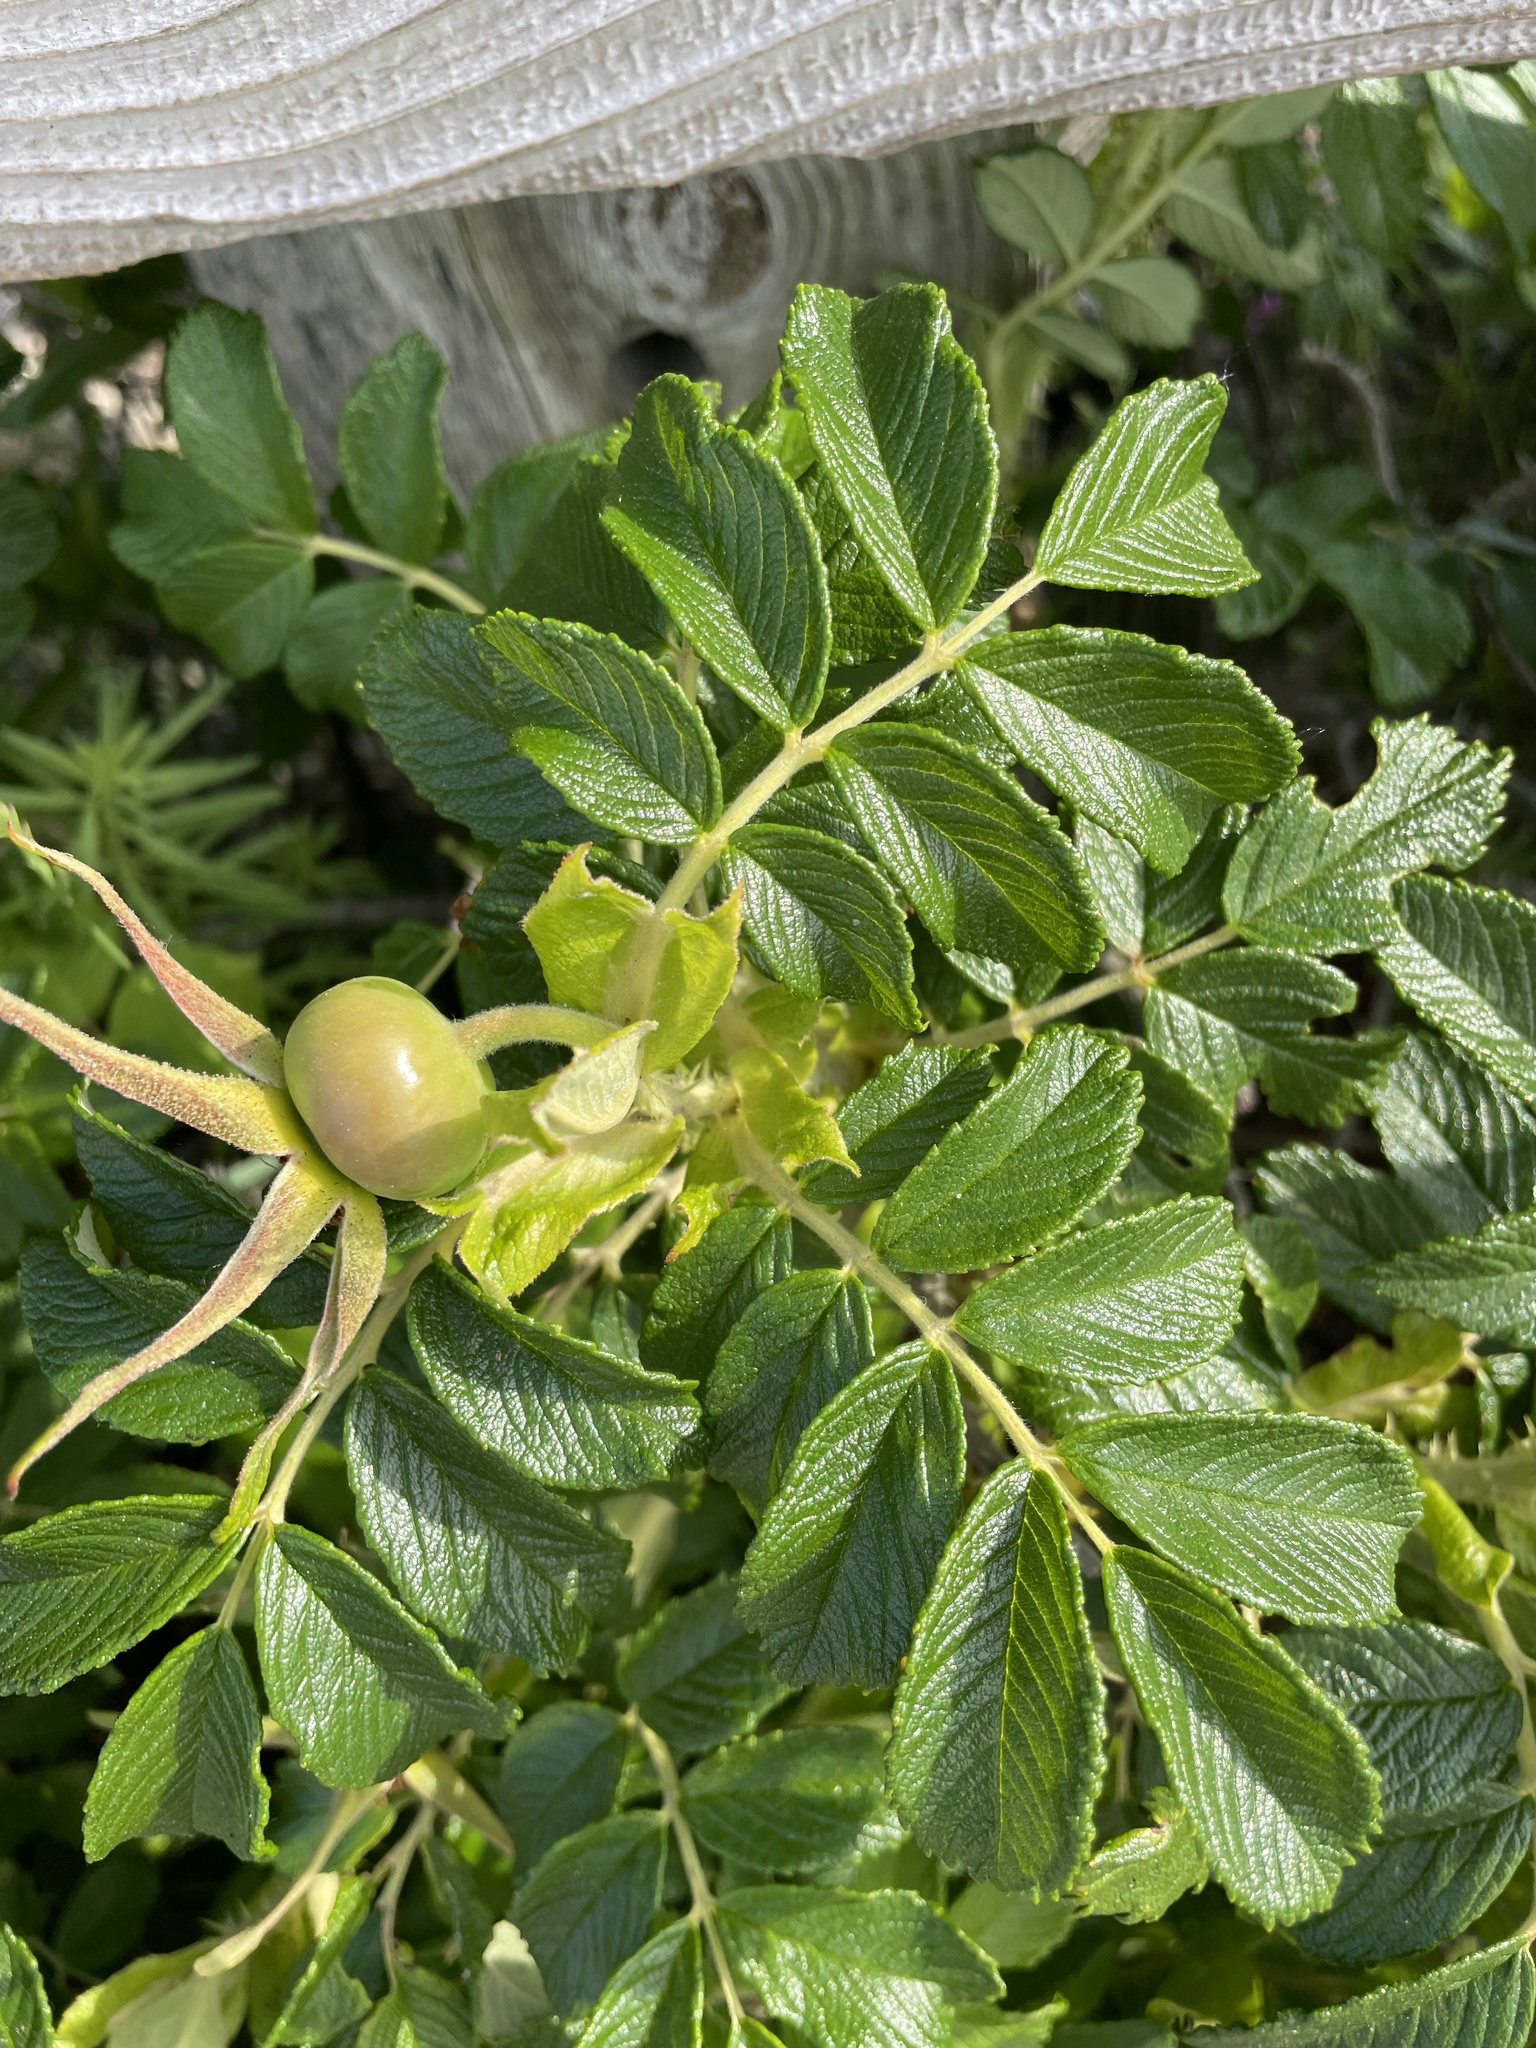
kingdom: Plantae
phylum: Tracheophyta
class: Magnoliopsida
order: Rosales
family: Rosaceae
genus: Rosa
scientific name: Rosa rugosa
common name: Japanese rose
